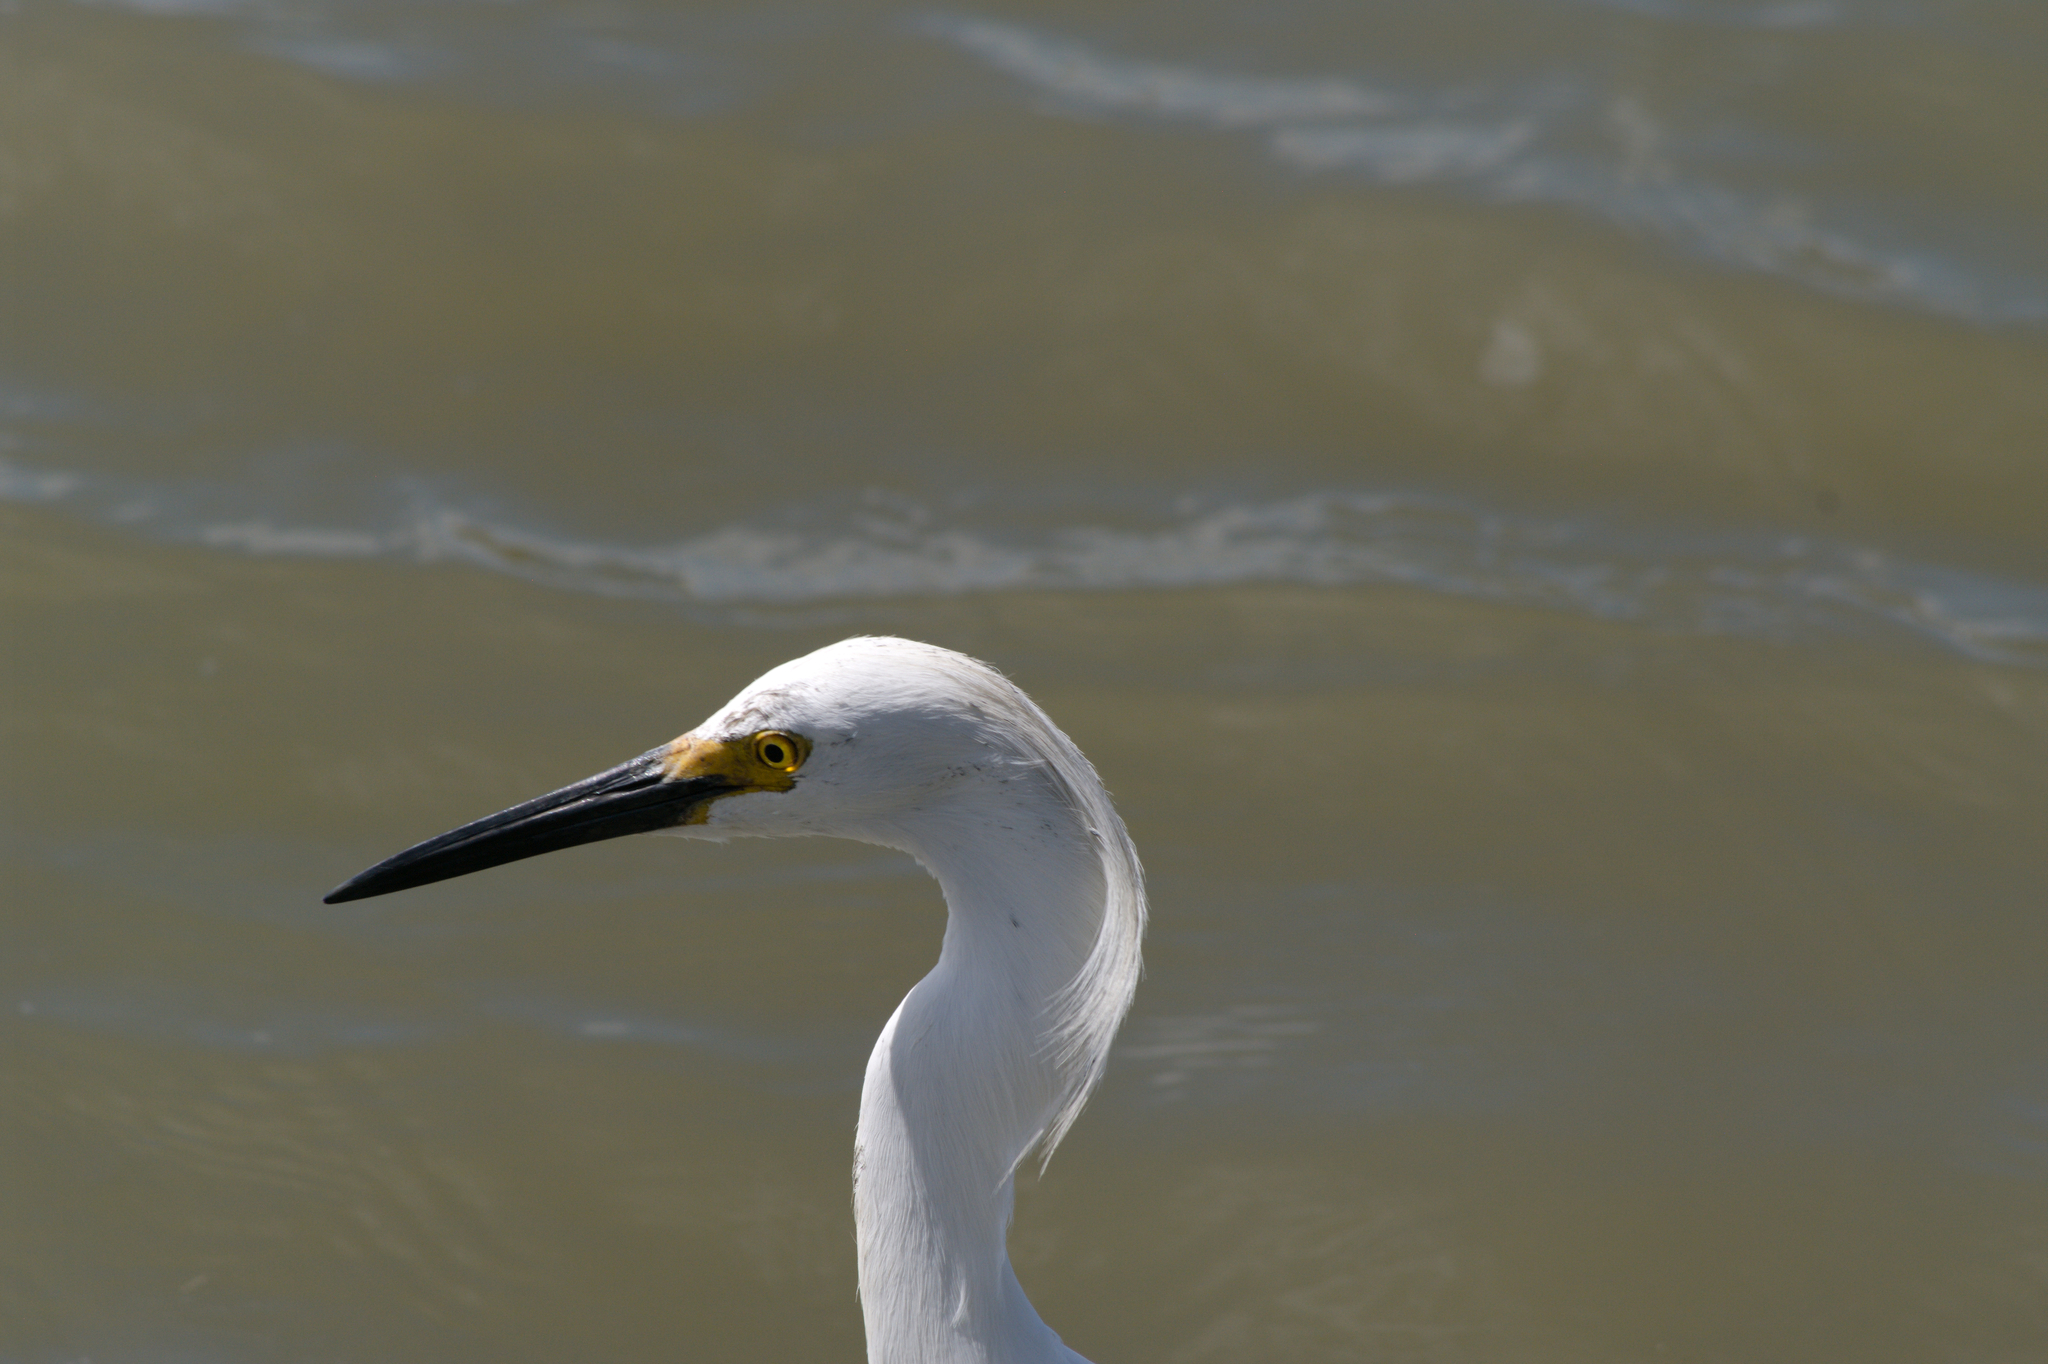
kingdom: Animalia
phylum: Chordata
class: Aves
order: Pelecaniformes
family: Ardeidae
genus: Egretta
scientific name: Egretta thula
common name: Snowy egret
